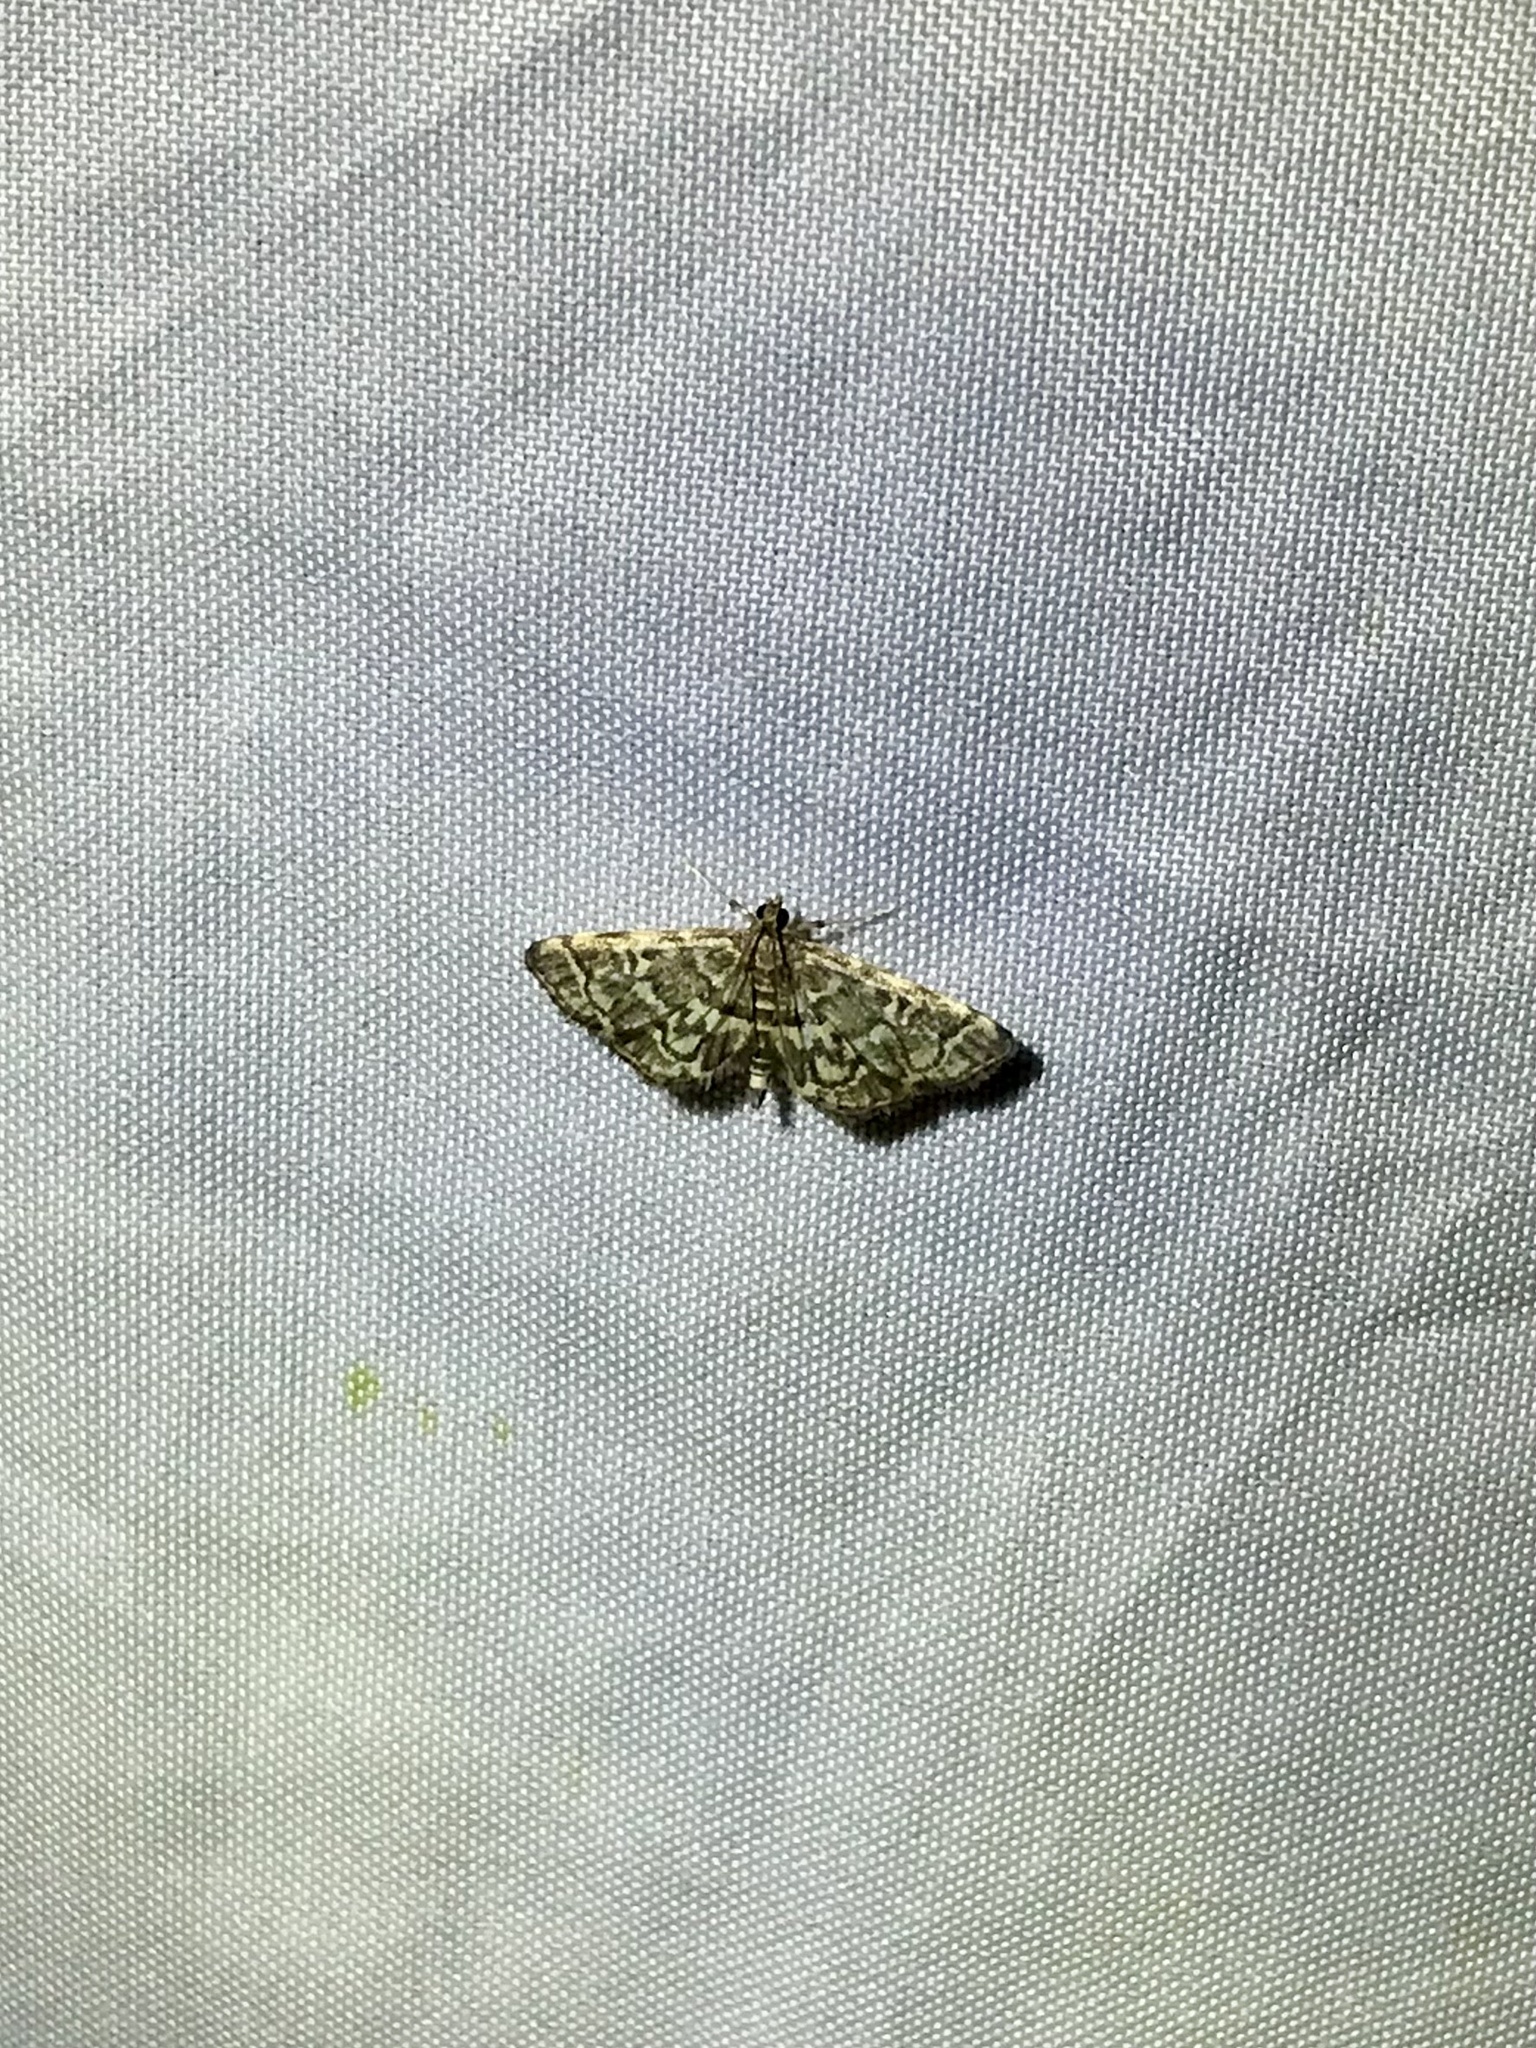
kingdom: Animalia
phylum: Arthropoda
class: Insecta
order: Lepidoptera
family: Crambidae
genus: Anageshna
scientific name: Anageshna primordialis
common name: Yellow-spotted webworm moth
